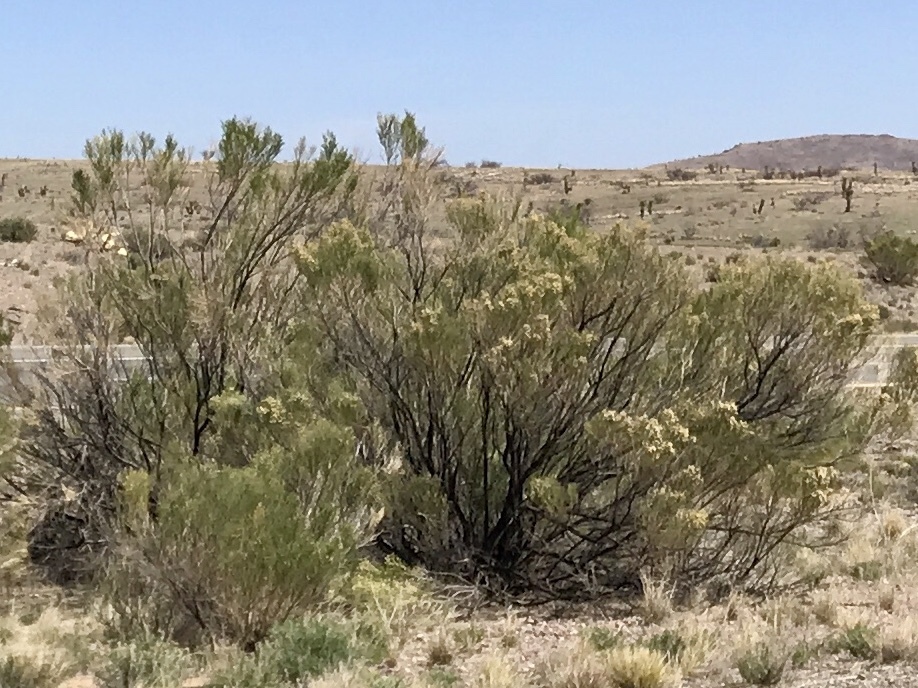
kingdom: Plantae
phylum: Tracheophyta
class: Magnoliopsida
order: Asterales
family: Asteraceae
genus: Baccharis
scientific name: Baccharis sarothroides
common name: Desert-broom
